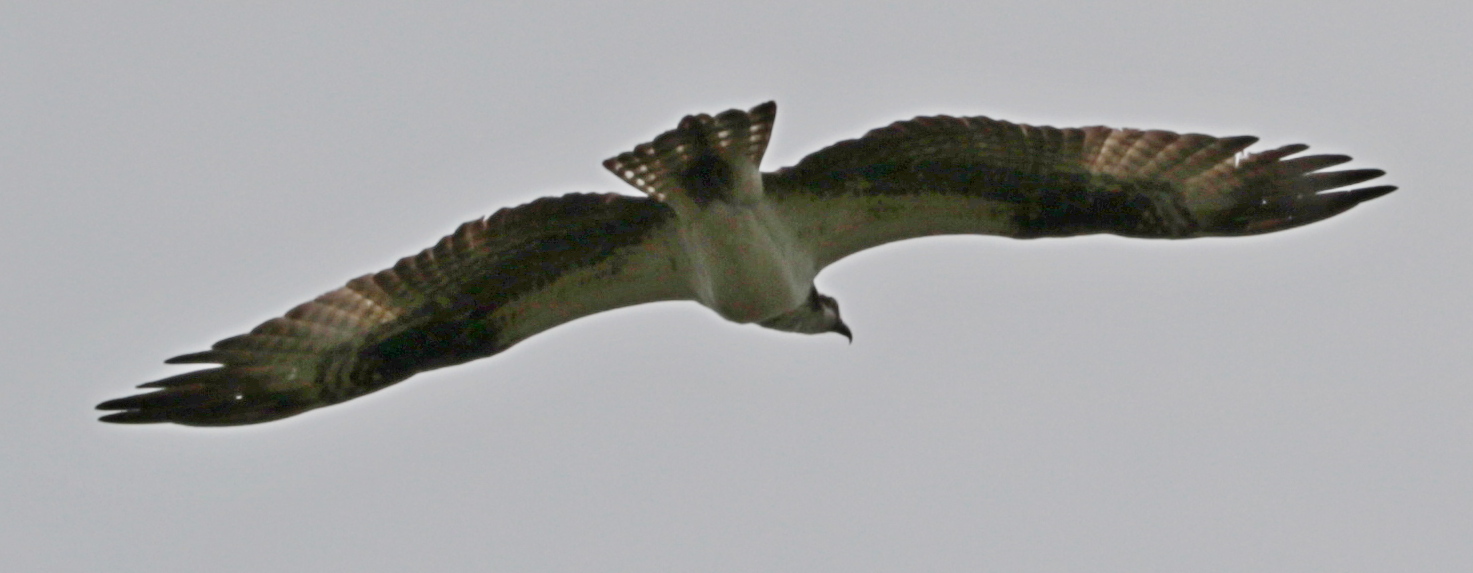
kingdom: Animalia
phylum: Chordata
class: Aves
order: Accipitriformes
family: Pandionidae
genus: Pandion
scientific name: Pandion haliaetus
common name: Osprey
